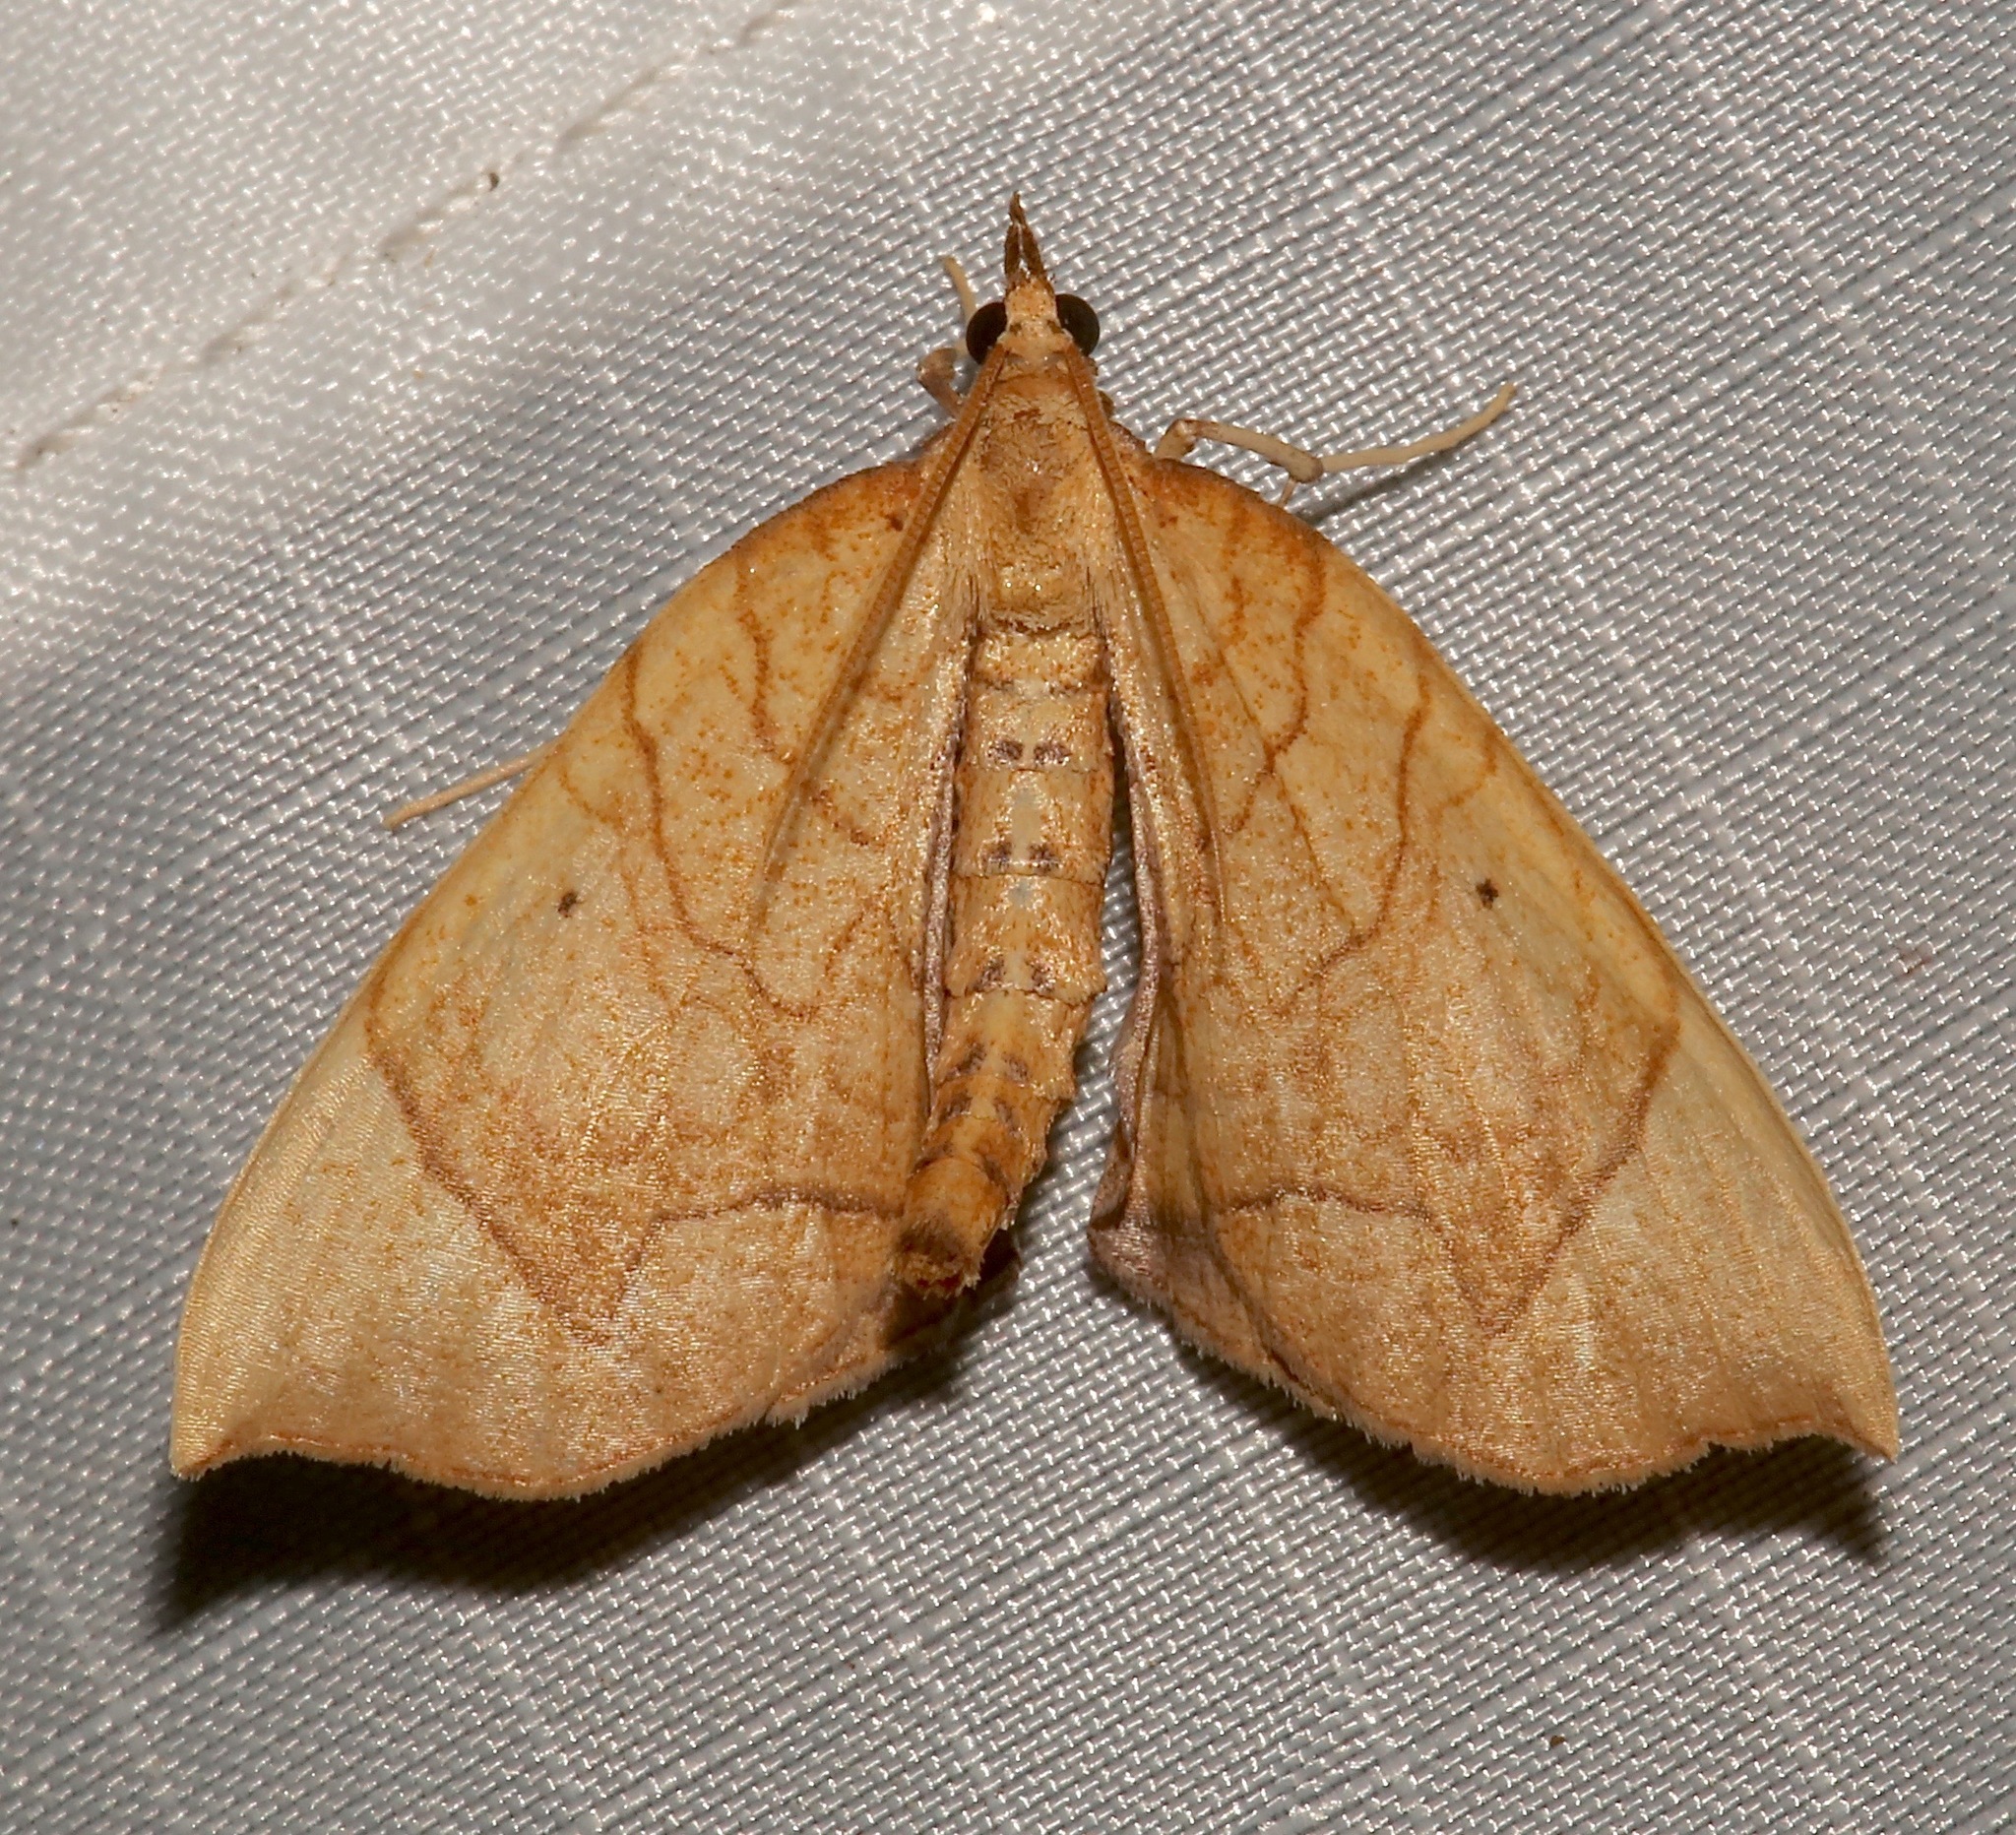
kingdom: Animalia
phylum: Arthropoda
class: Insecta
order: Lepidoptera
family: Geometridae
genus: Eulithis
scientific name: Eulithis
